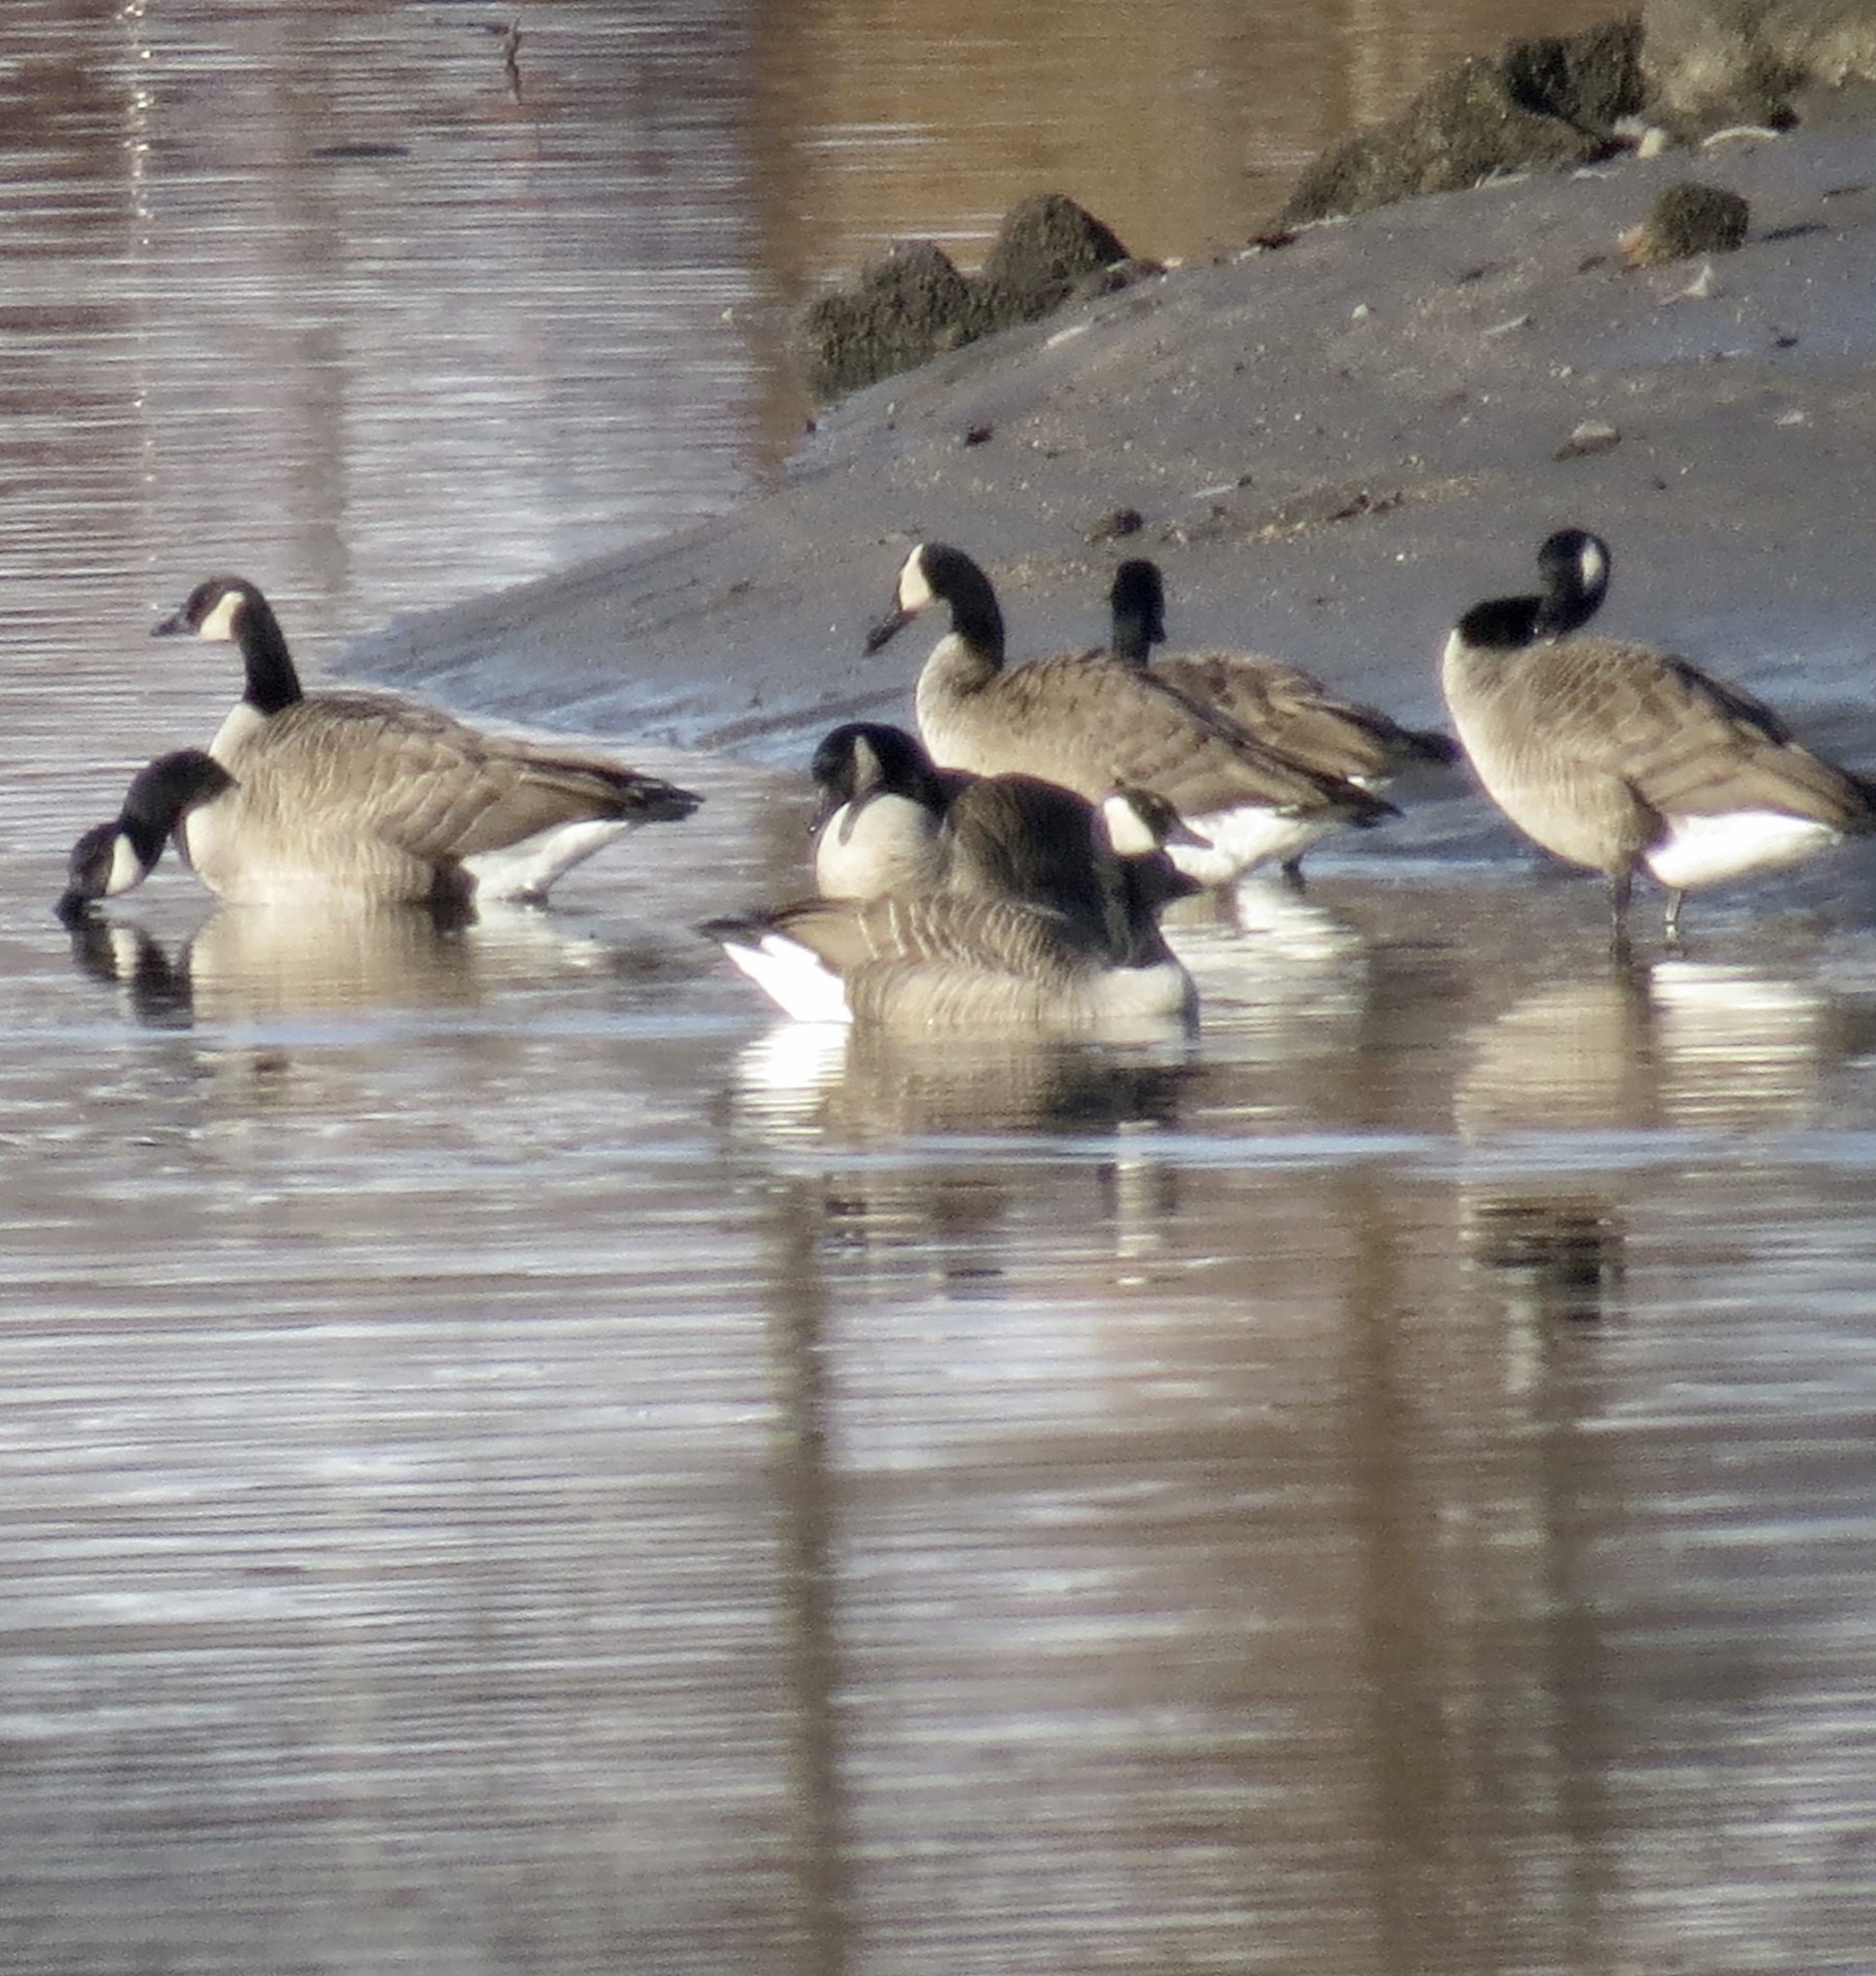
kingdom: Animalia
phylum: Chordata
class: Aves
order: Anseriformes
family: Anatidae
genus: Branta
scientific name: Branta canadensis
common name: Canada goose
